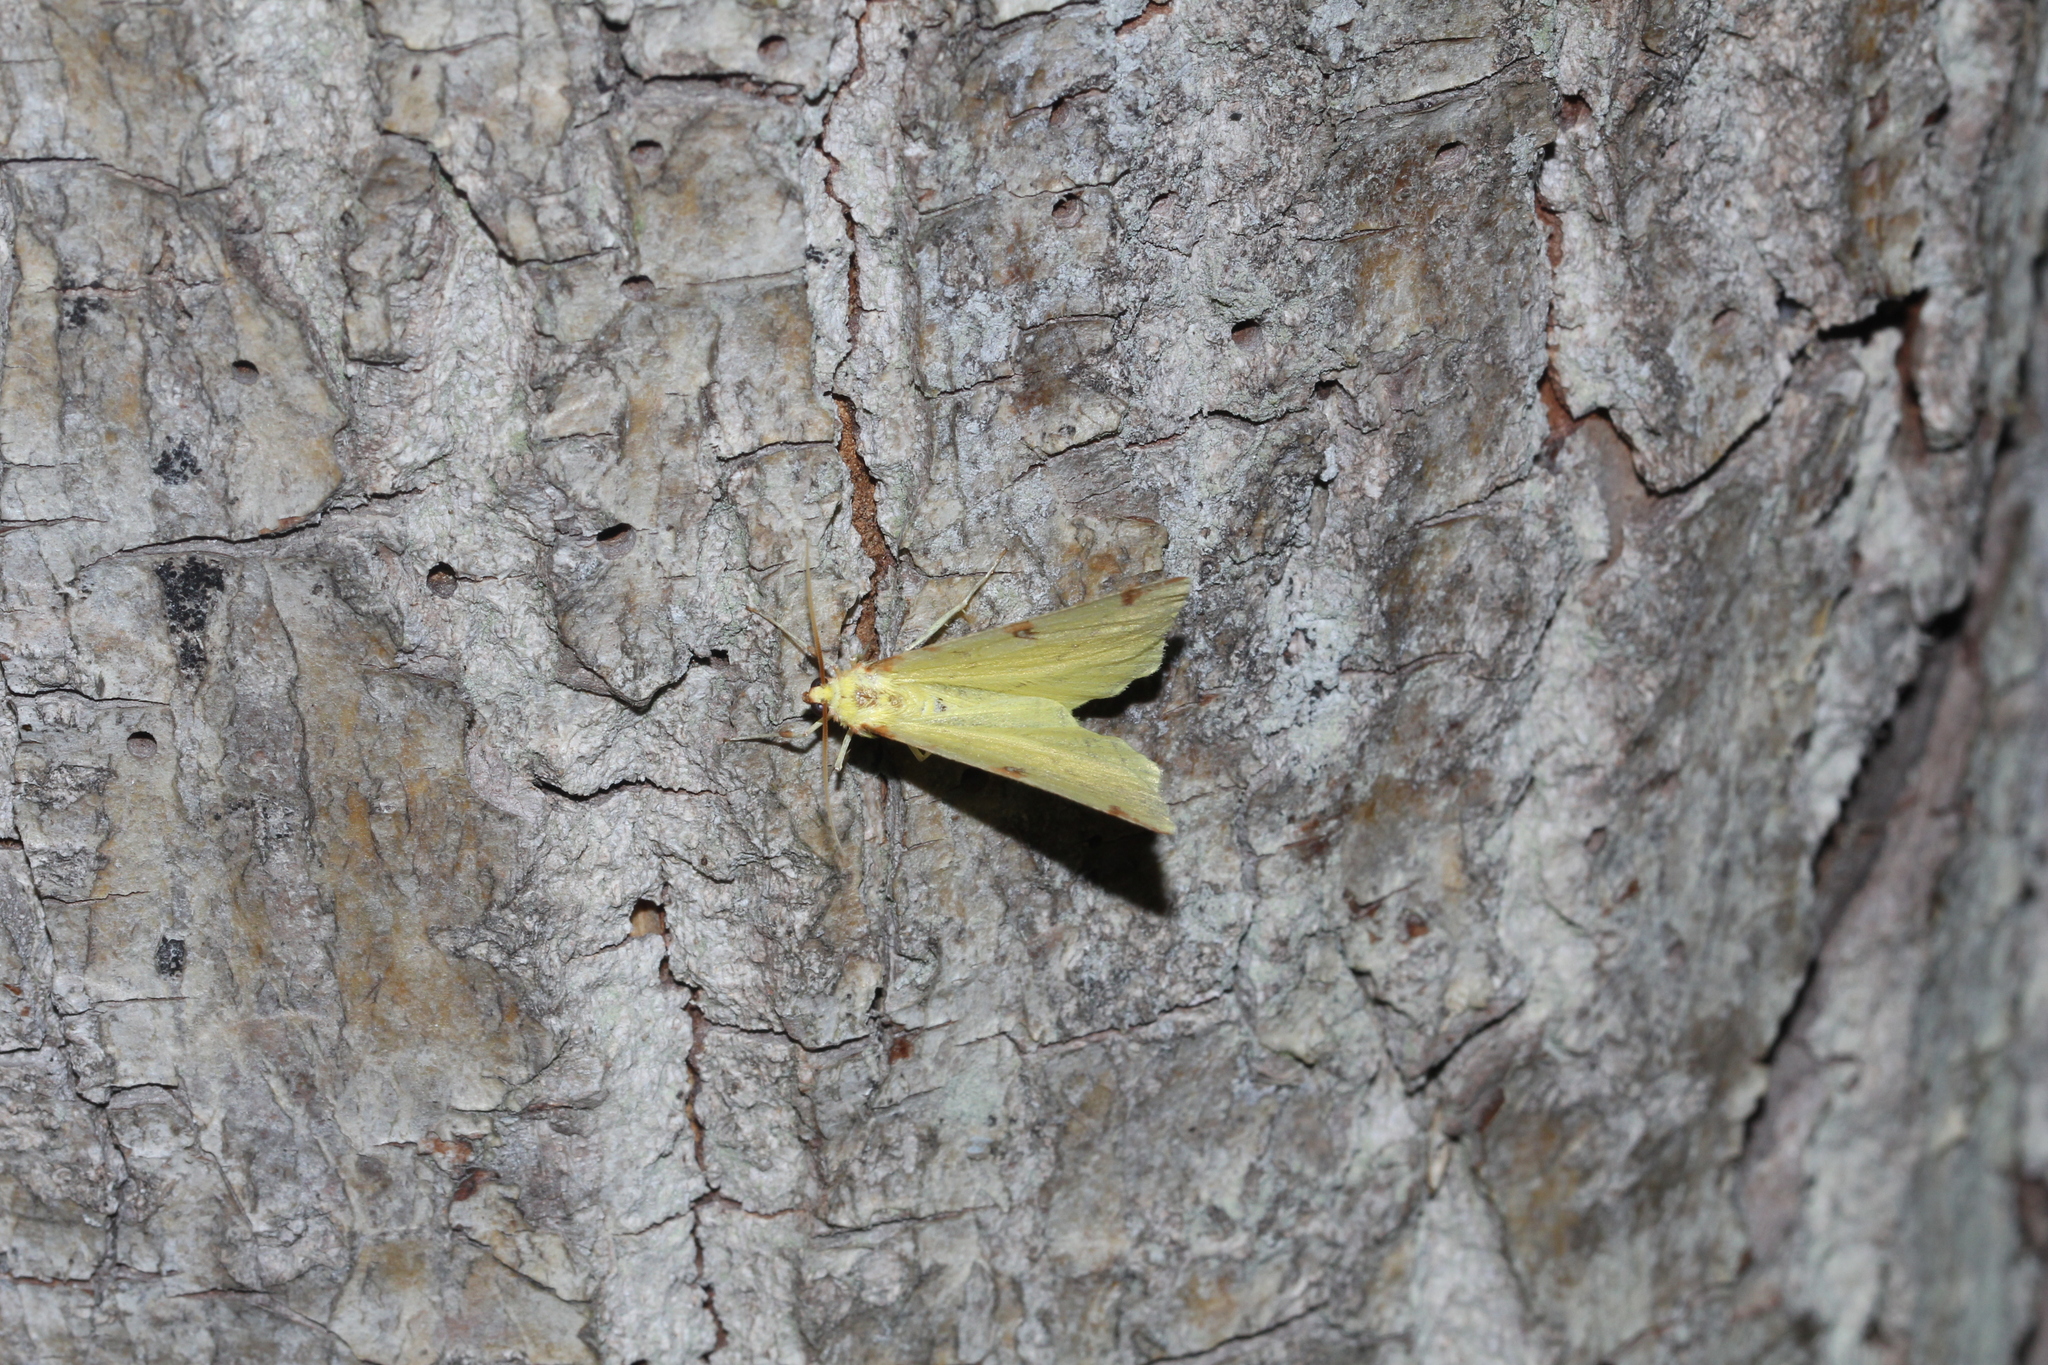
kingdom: Animalia
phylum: Arthropoda
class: Insecta
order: Lepidoptera
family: Geometridae
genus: Opisthograptis
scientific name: Opisthograptis luteolata
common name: Brimstone moth
